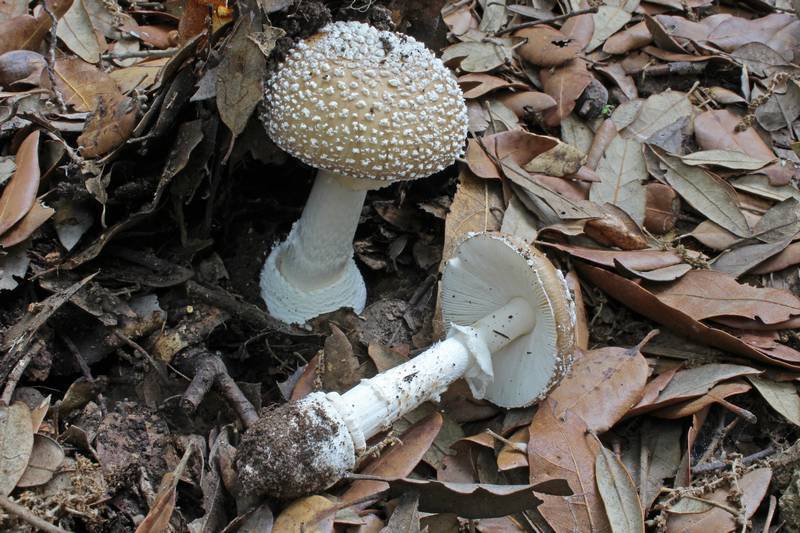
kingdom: Fungi
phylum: Basidiomycota
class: Agaricomycetes
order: Agaricales
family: Amanitaceae
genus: Amanita
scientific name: Amanita pantherina
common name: Panthercap
